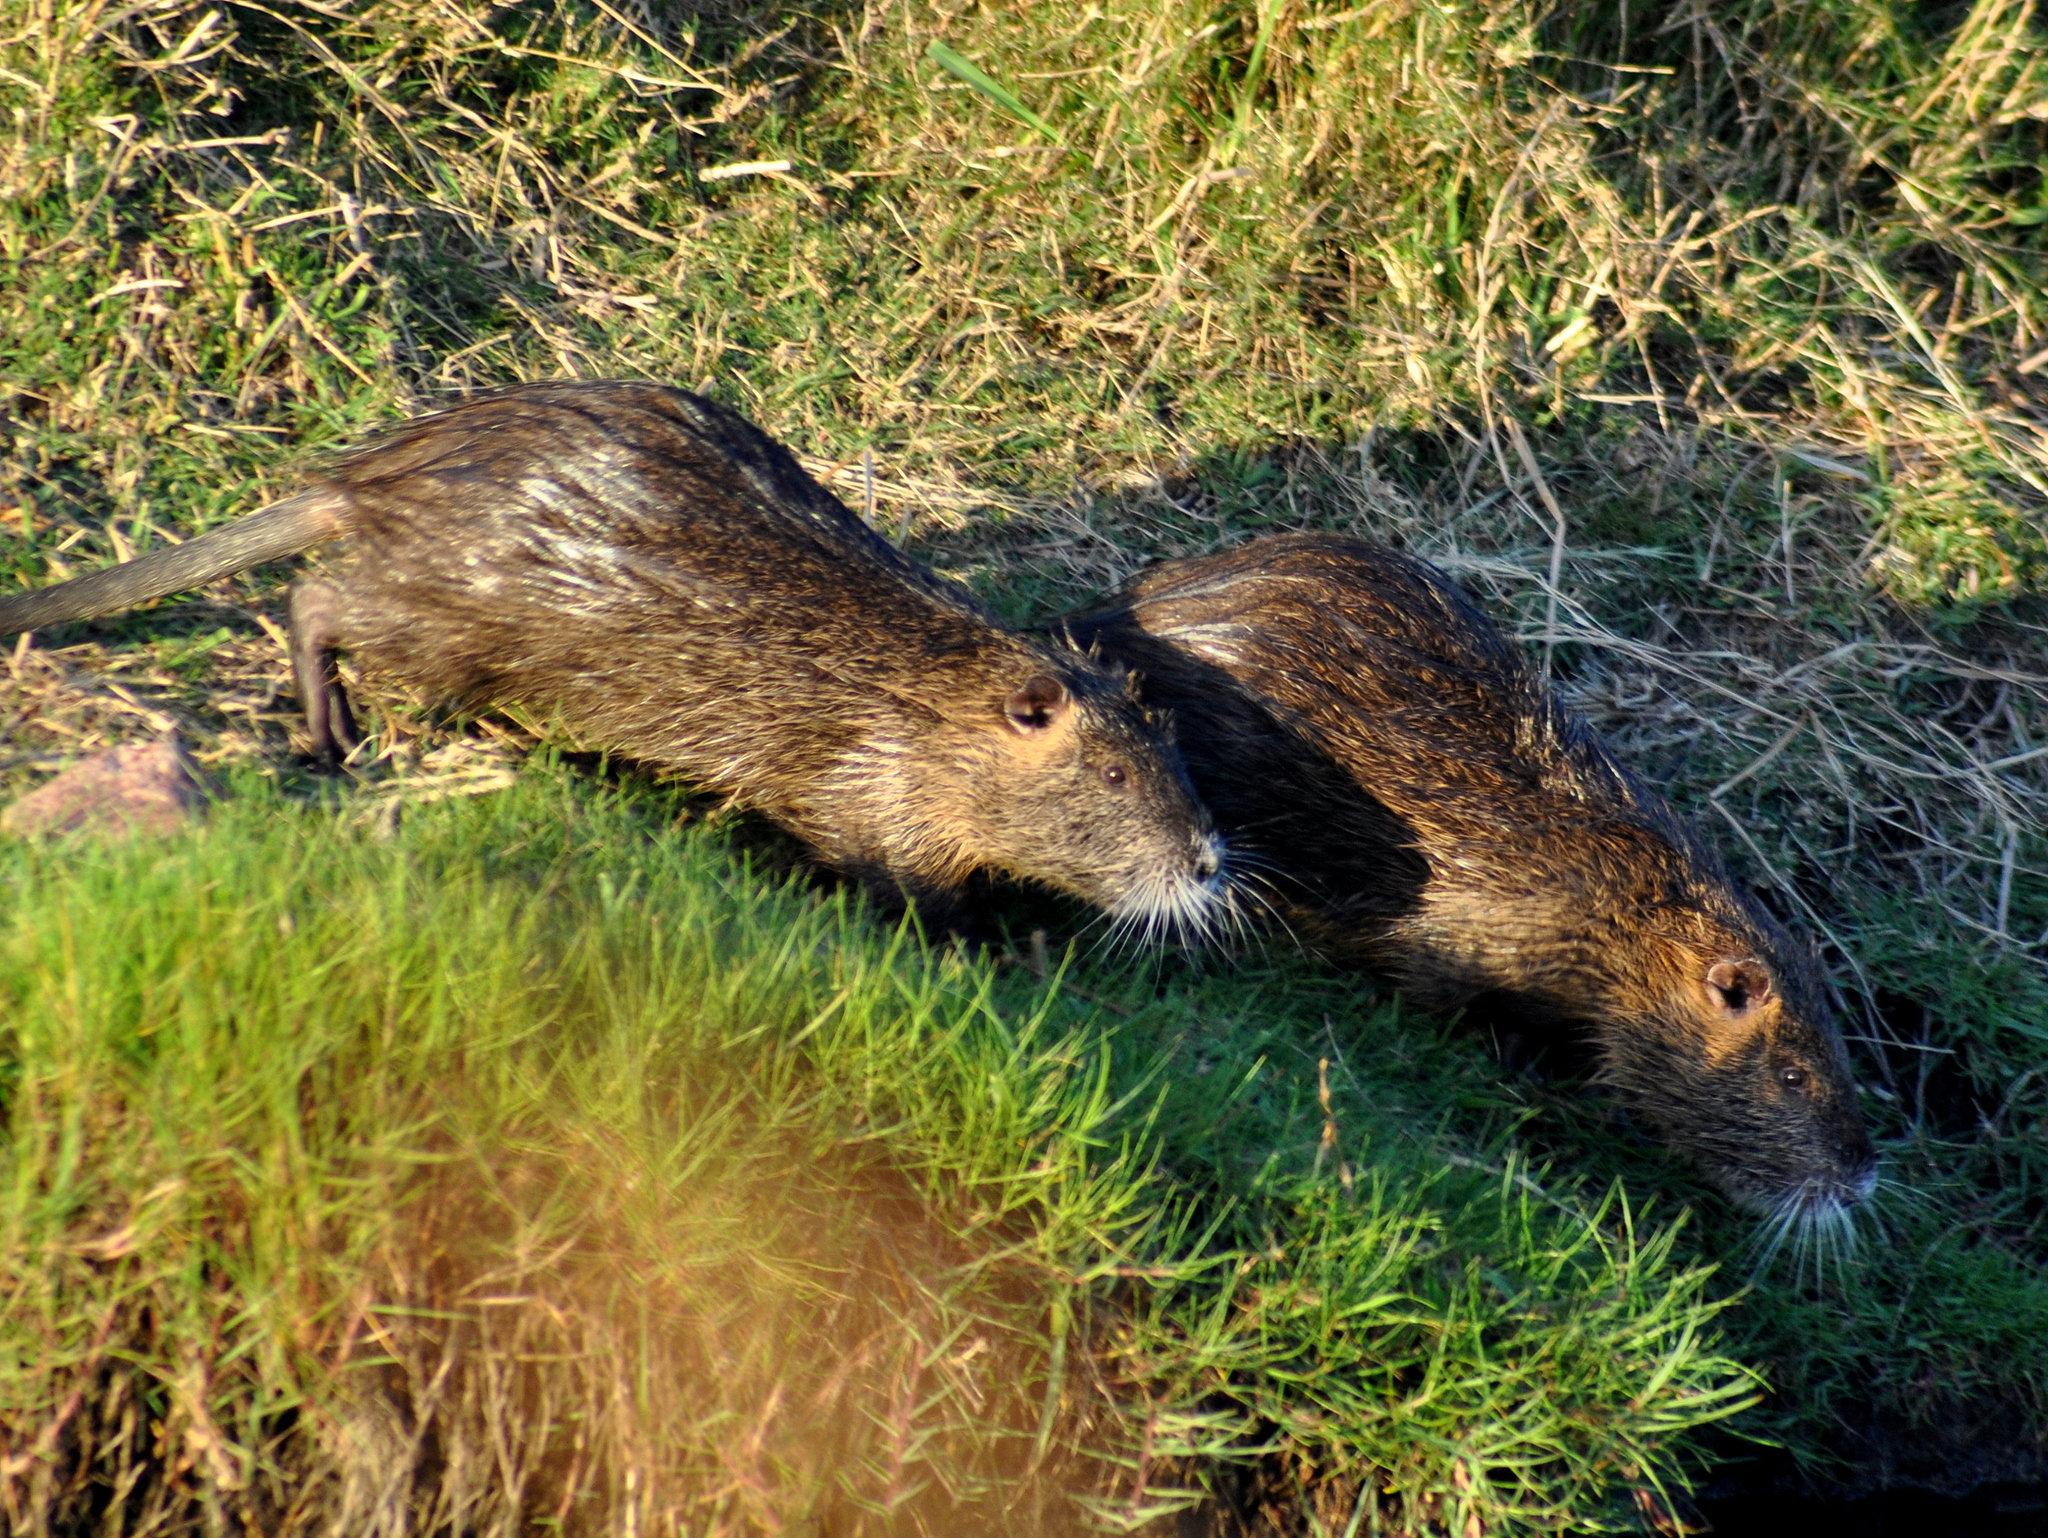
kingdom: Animalia
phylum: Chordata
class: Mammalia
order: Rodentia
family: Myocastoridae
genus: Myocastor
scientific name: Myocastor coypus
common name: Coypu
